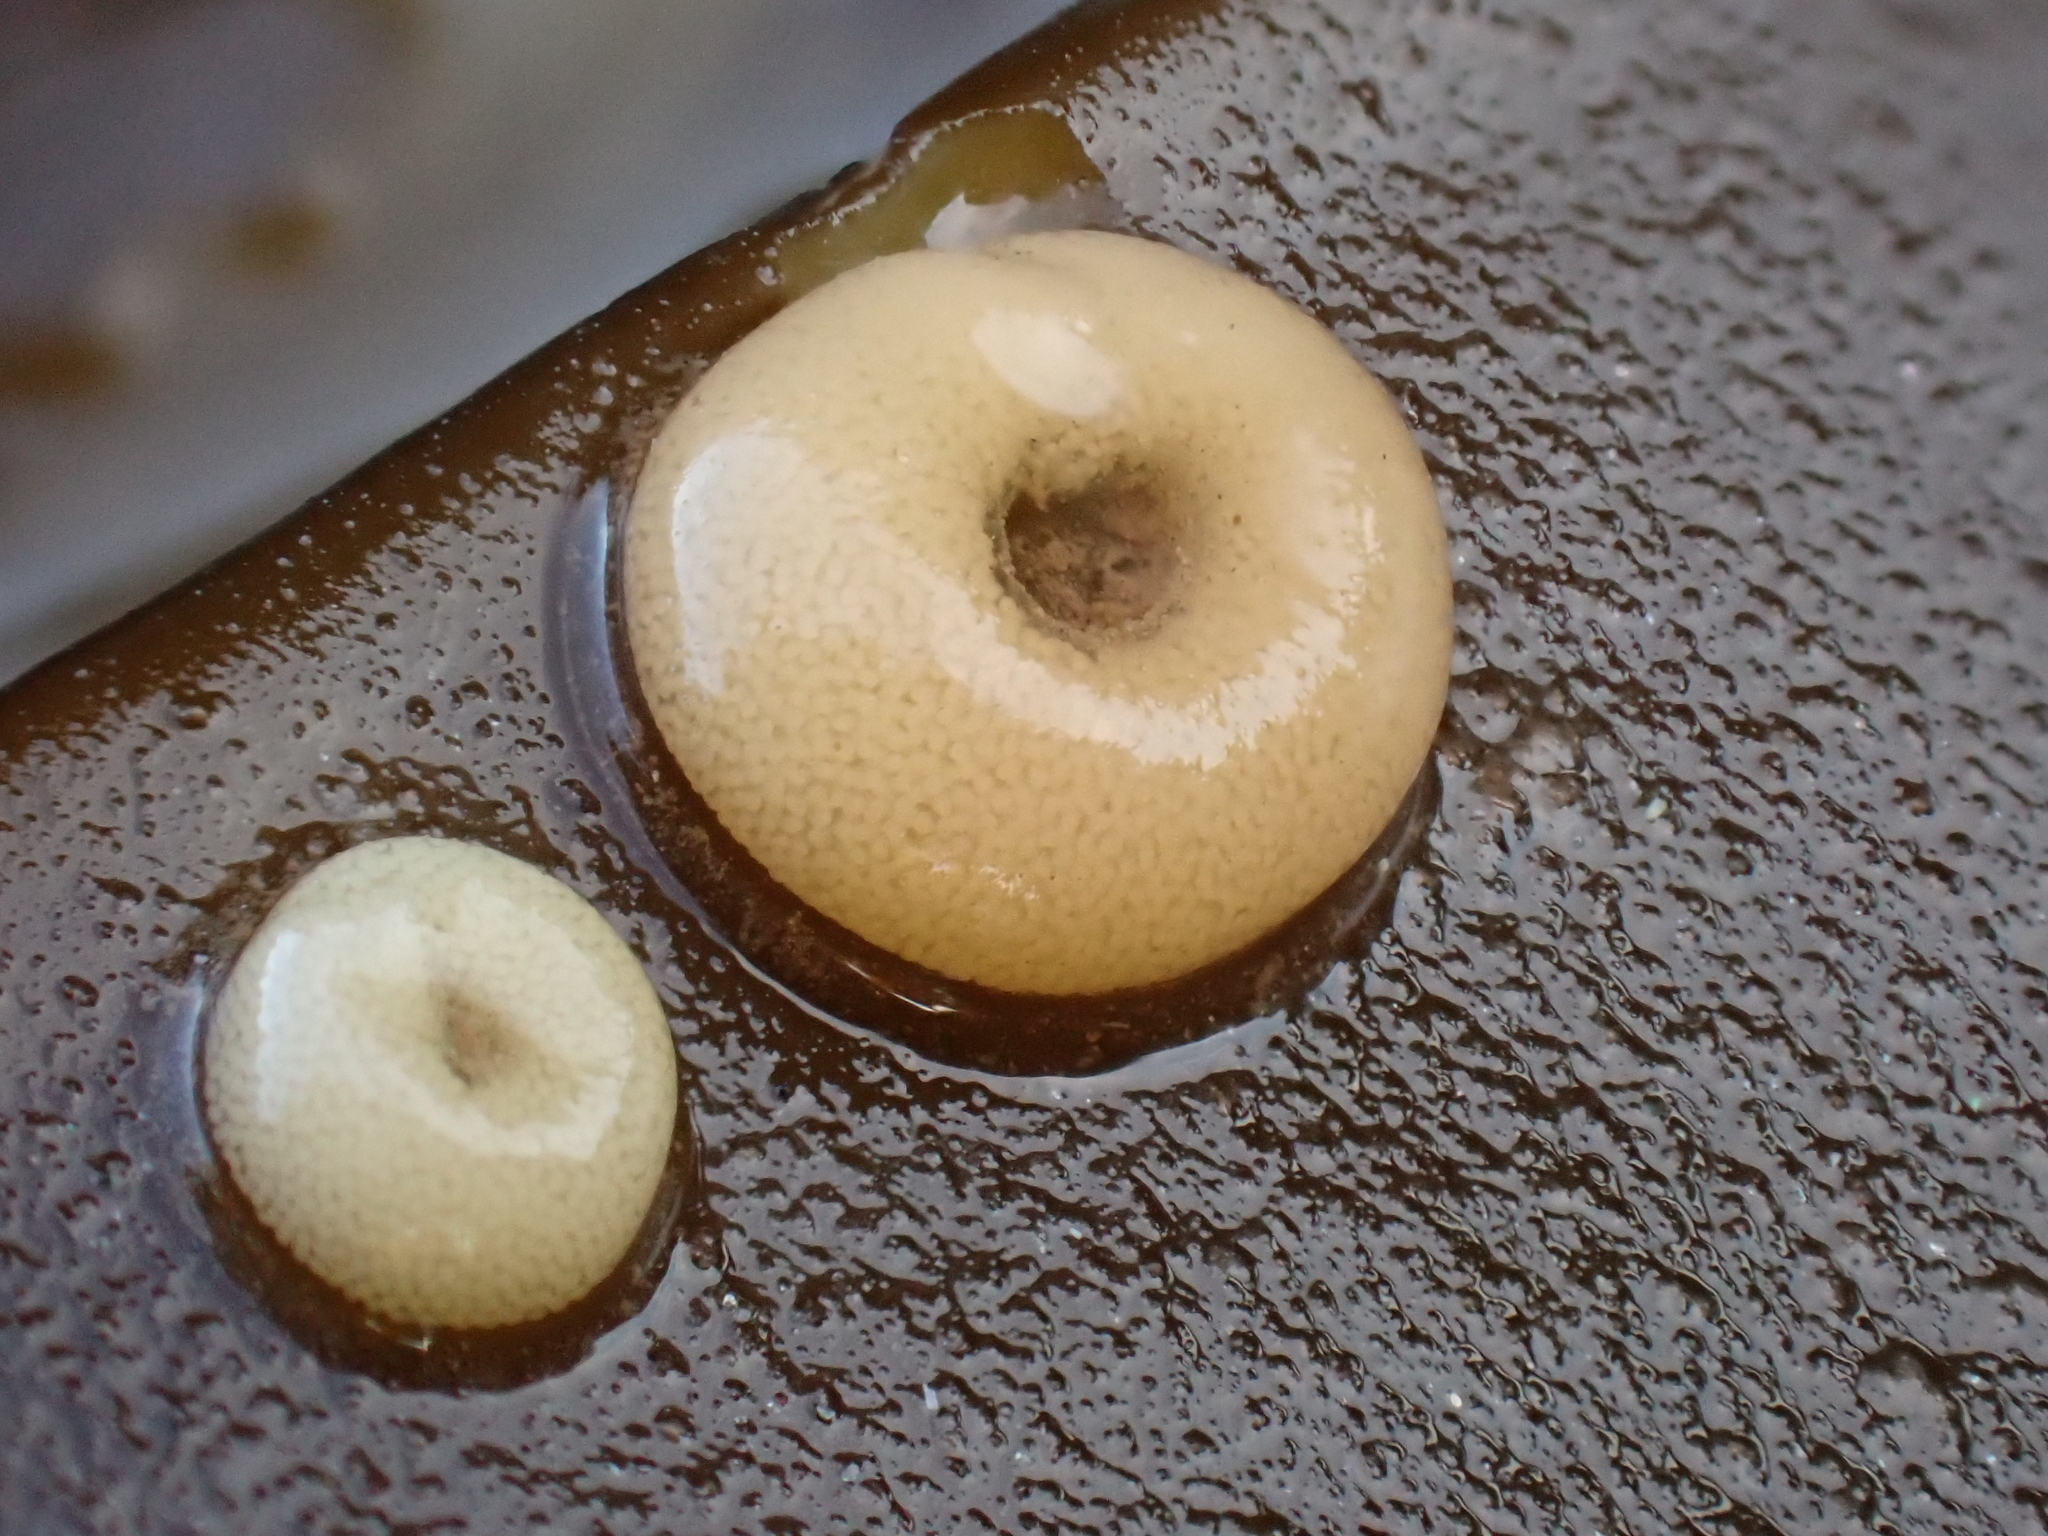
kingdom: Animalia
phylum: Mollusca
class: Gastropoda
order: Littorinimorpha
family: Littorinidae
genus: Lacuna
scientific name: Lacuna vincta
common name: Banded chink shell
